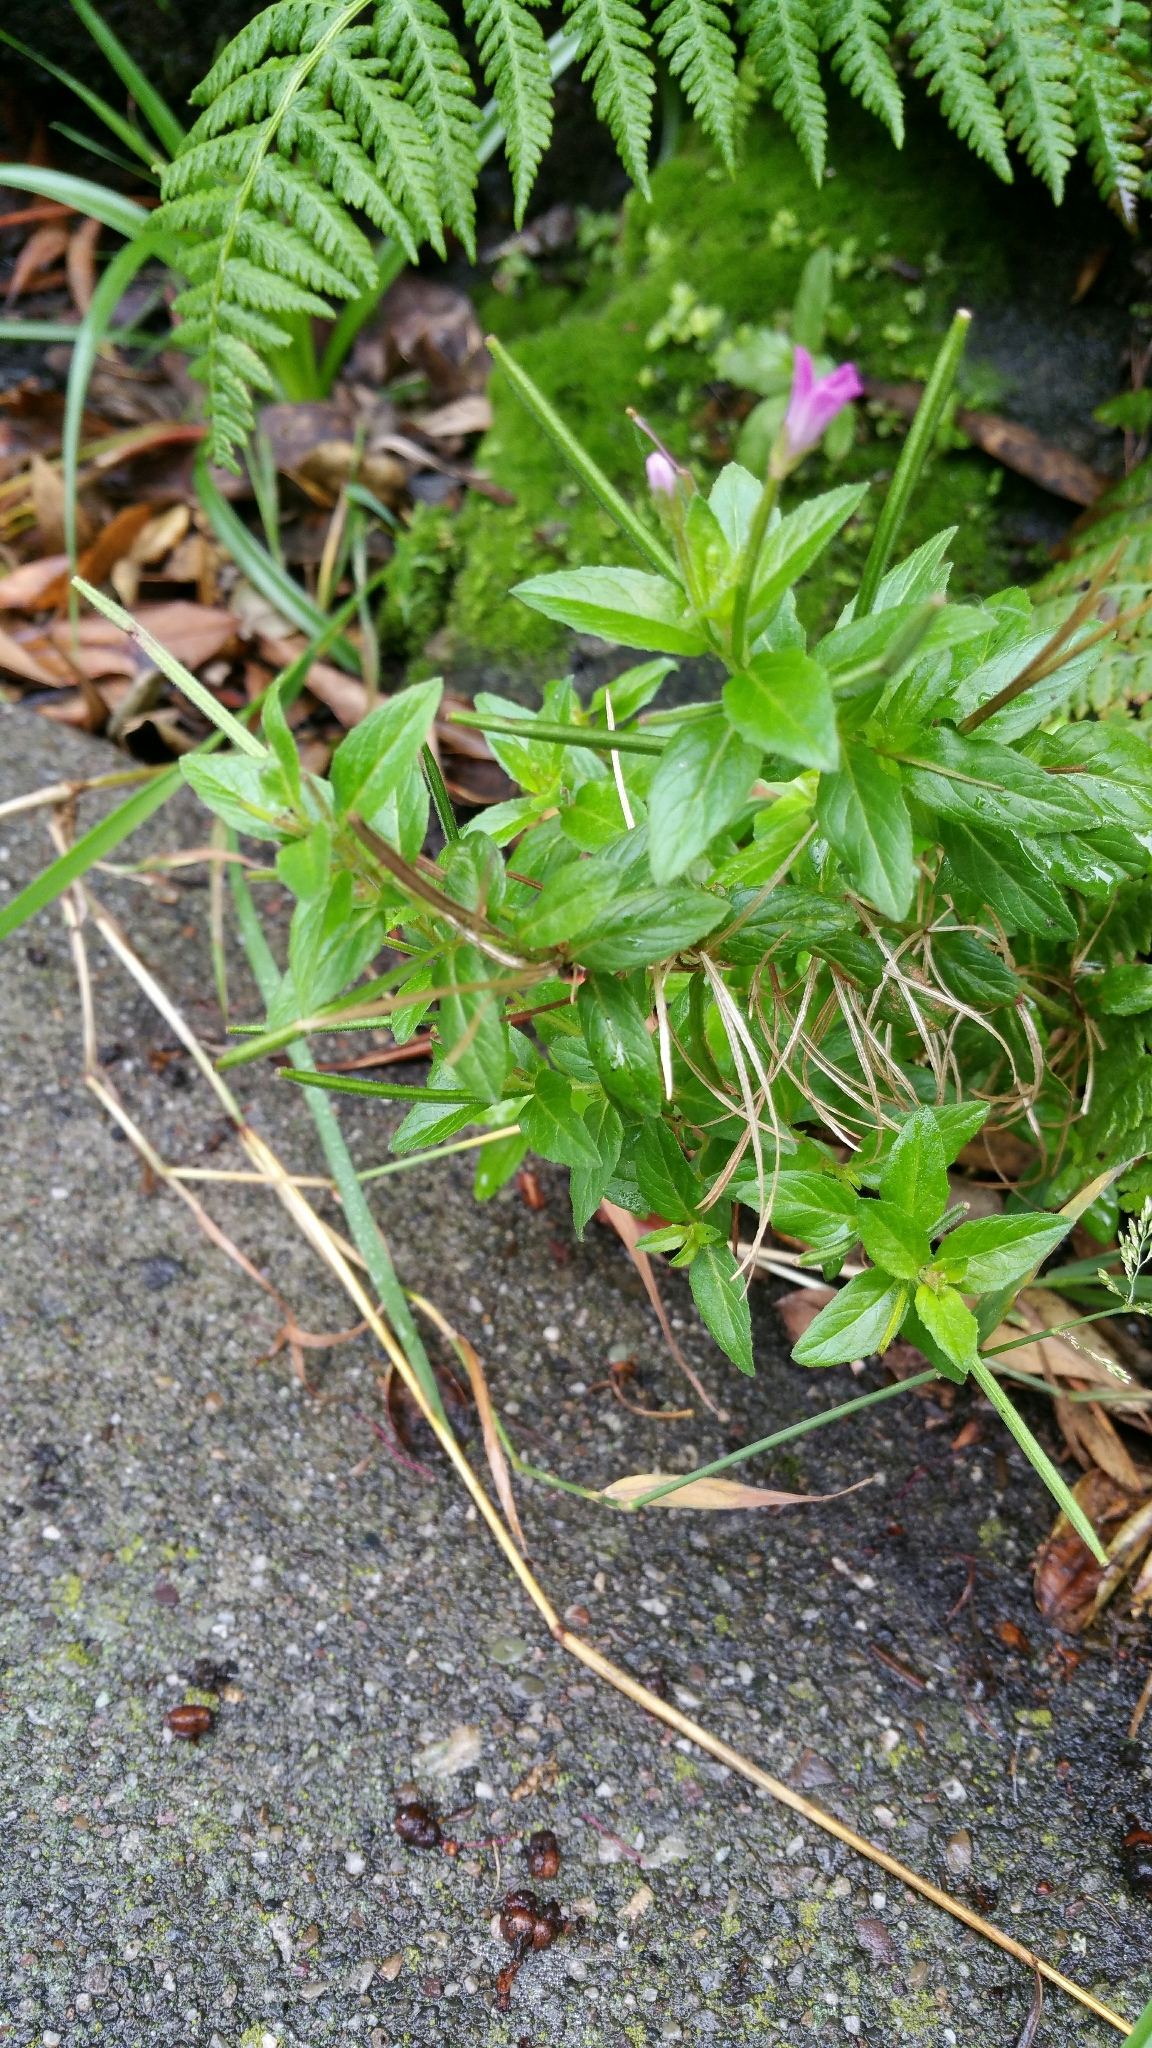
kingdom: Plantae
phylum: Tracheophyta
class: Magnoliopsida
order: Myrtales
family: Onagraceae
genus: Epilobium
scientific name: Epilobium ciliatum
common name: American willowherb
